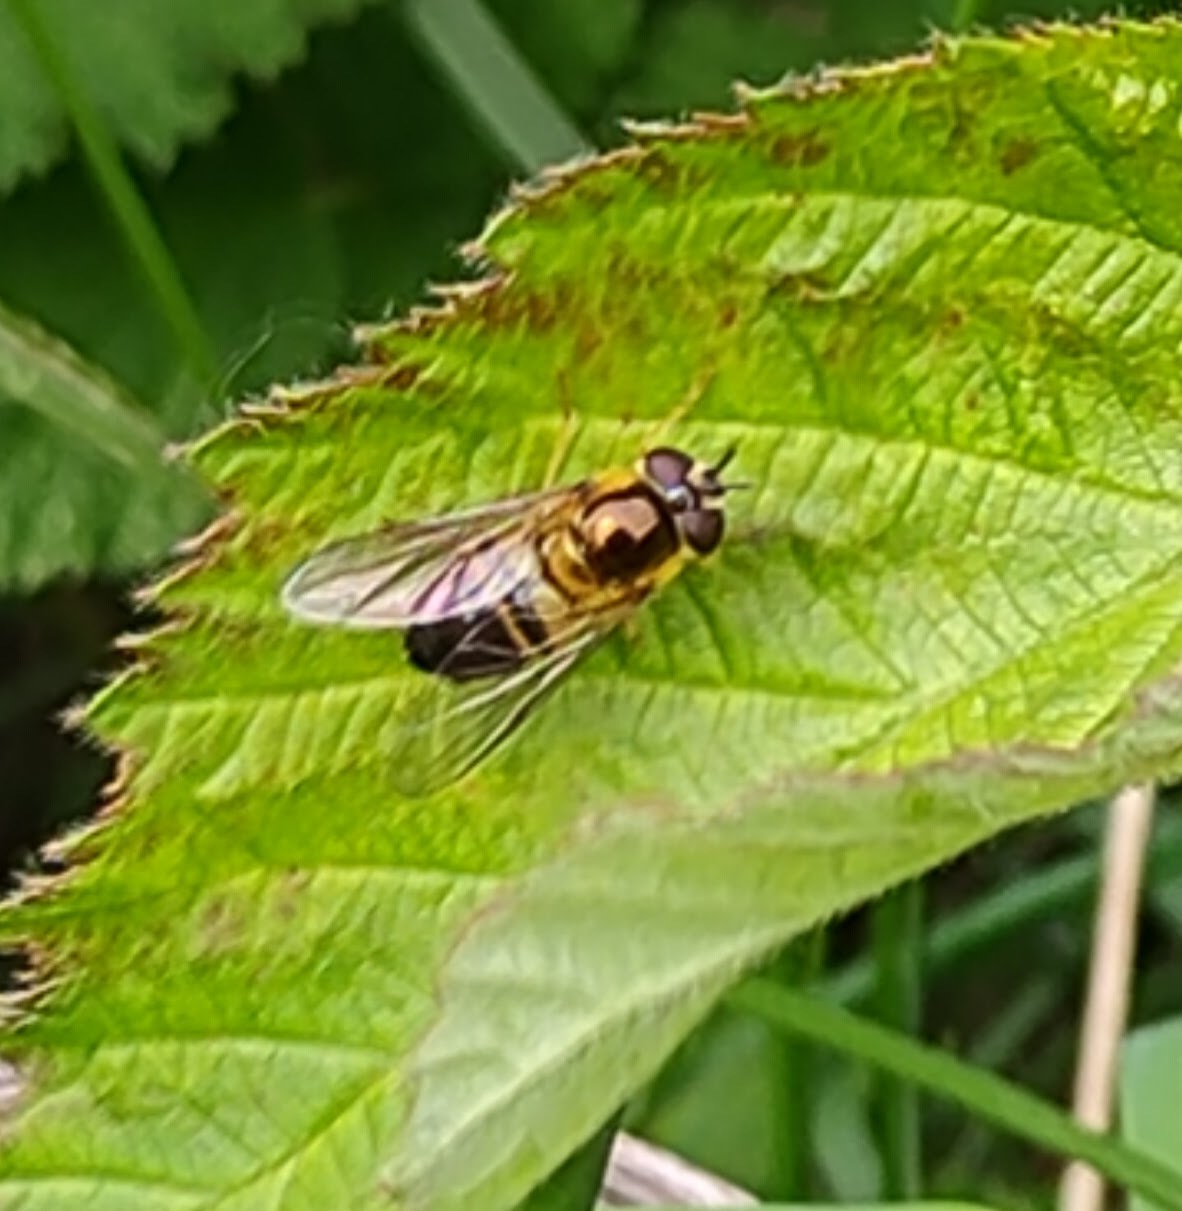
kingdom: Animalia
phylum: Arthropoda
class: Insecta
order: Diptera
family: Syrphidae
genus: Epistrophe
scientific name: Epistrophe eligans
